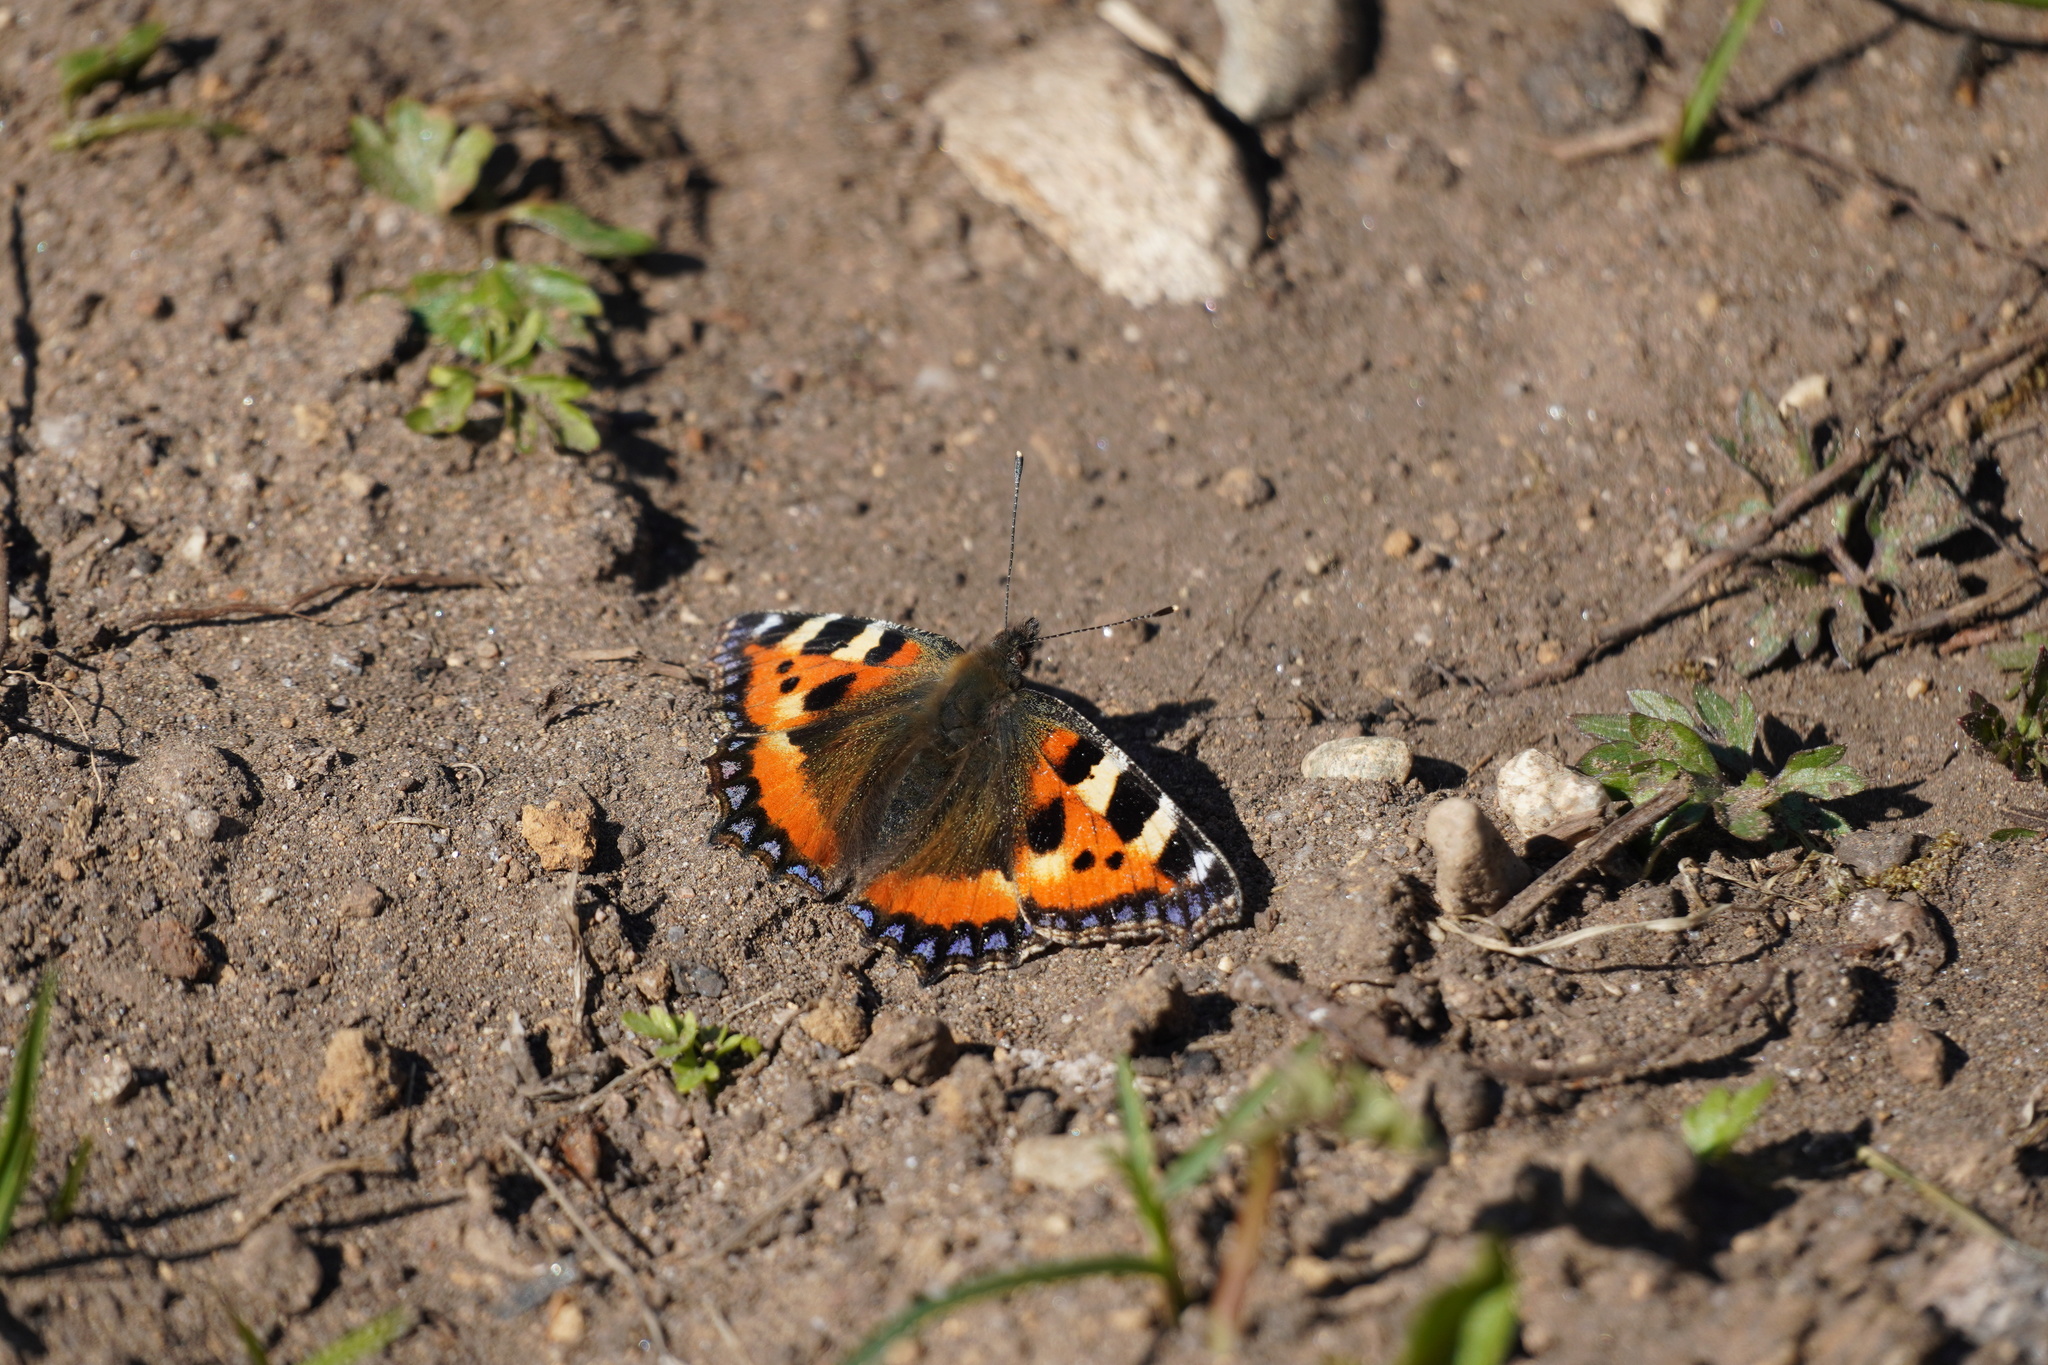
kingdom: Animalia
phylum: Arthropoda
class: Insecta
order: Lepidoptera
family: Nymphalidae
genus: Aglais
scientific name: Aglais urticae
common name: Small tortoiseshell
